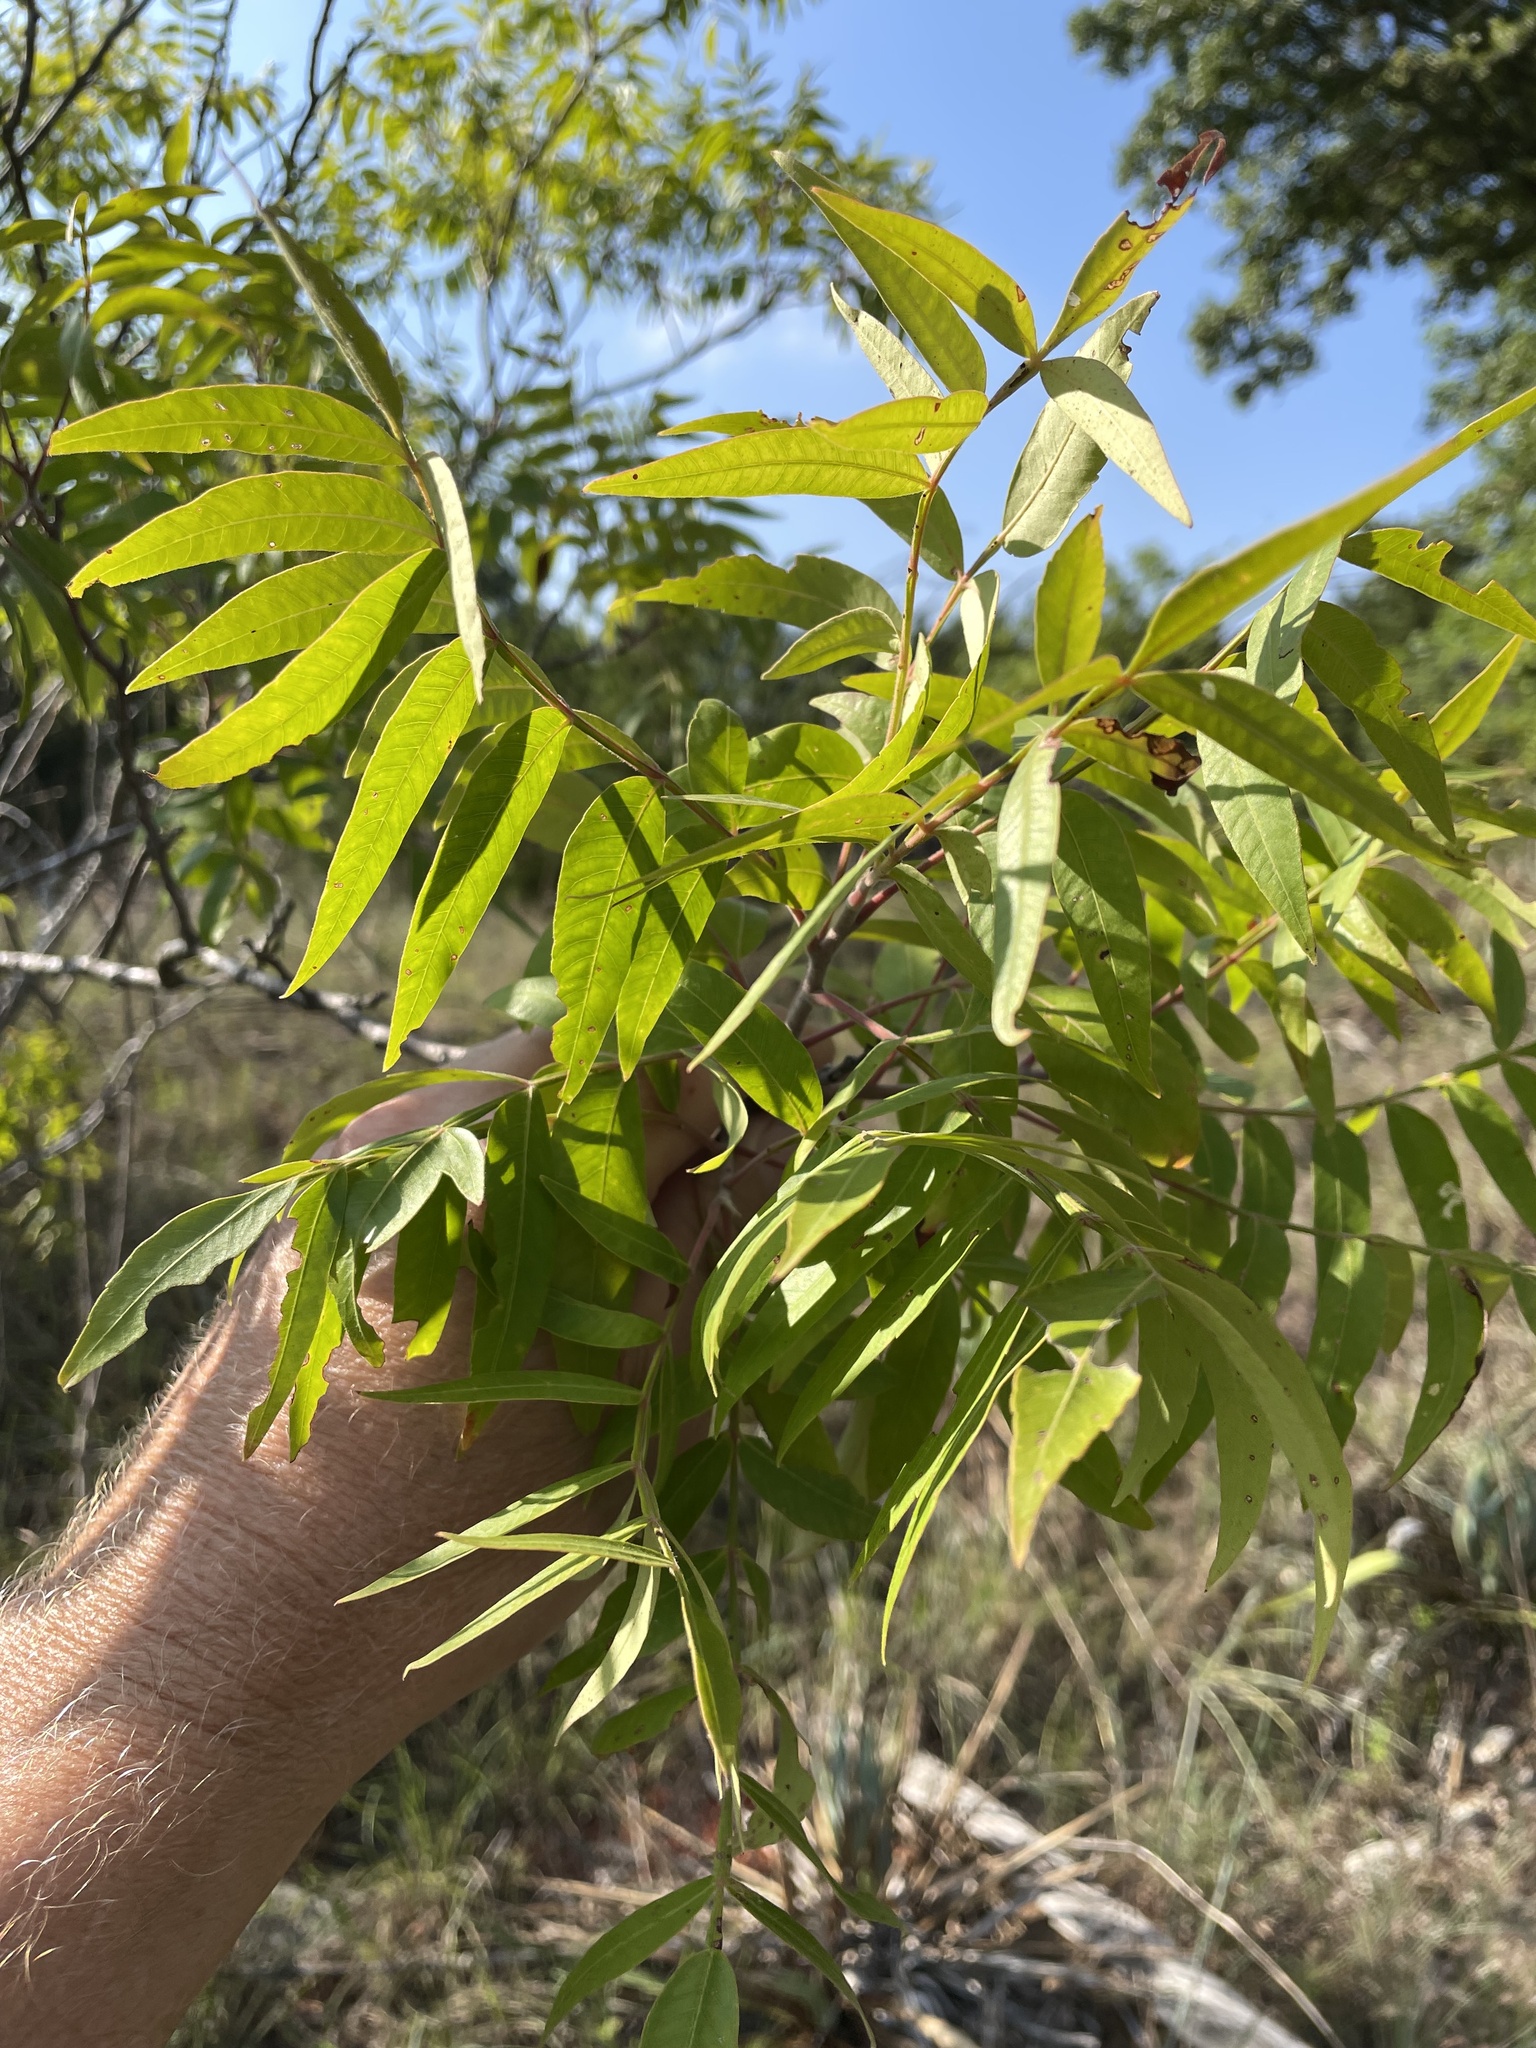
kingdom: Plantae
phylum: Tracheophyta
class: Magnoliopsida
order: Sapindales
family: Anacardiaceae
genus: Rhus
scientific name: Rhus lanceolata
